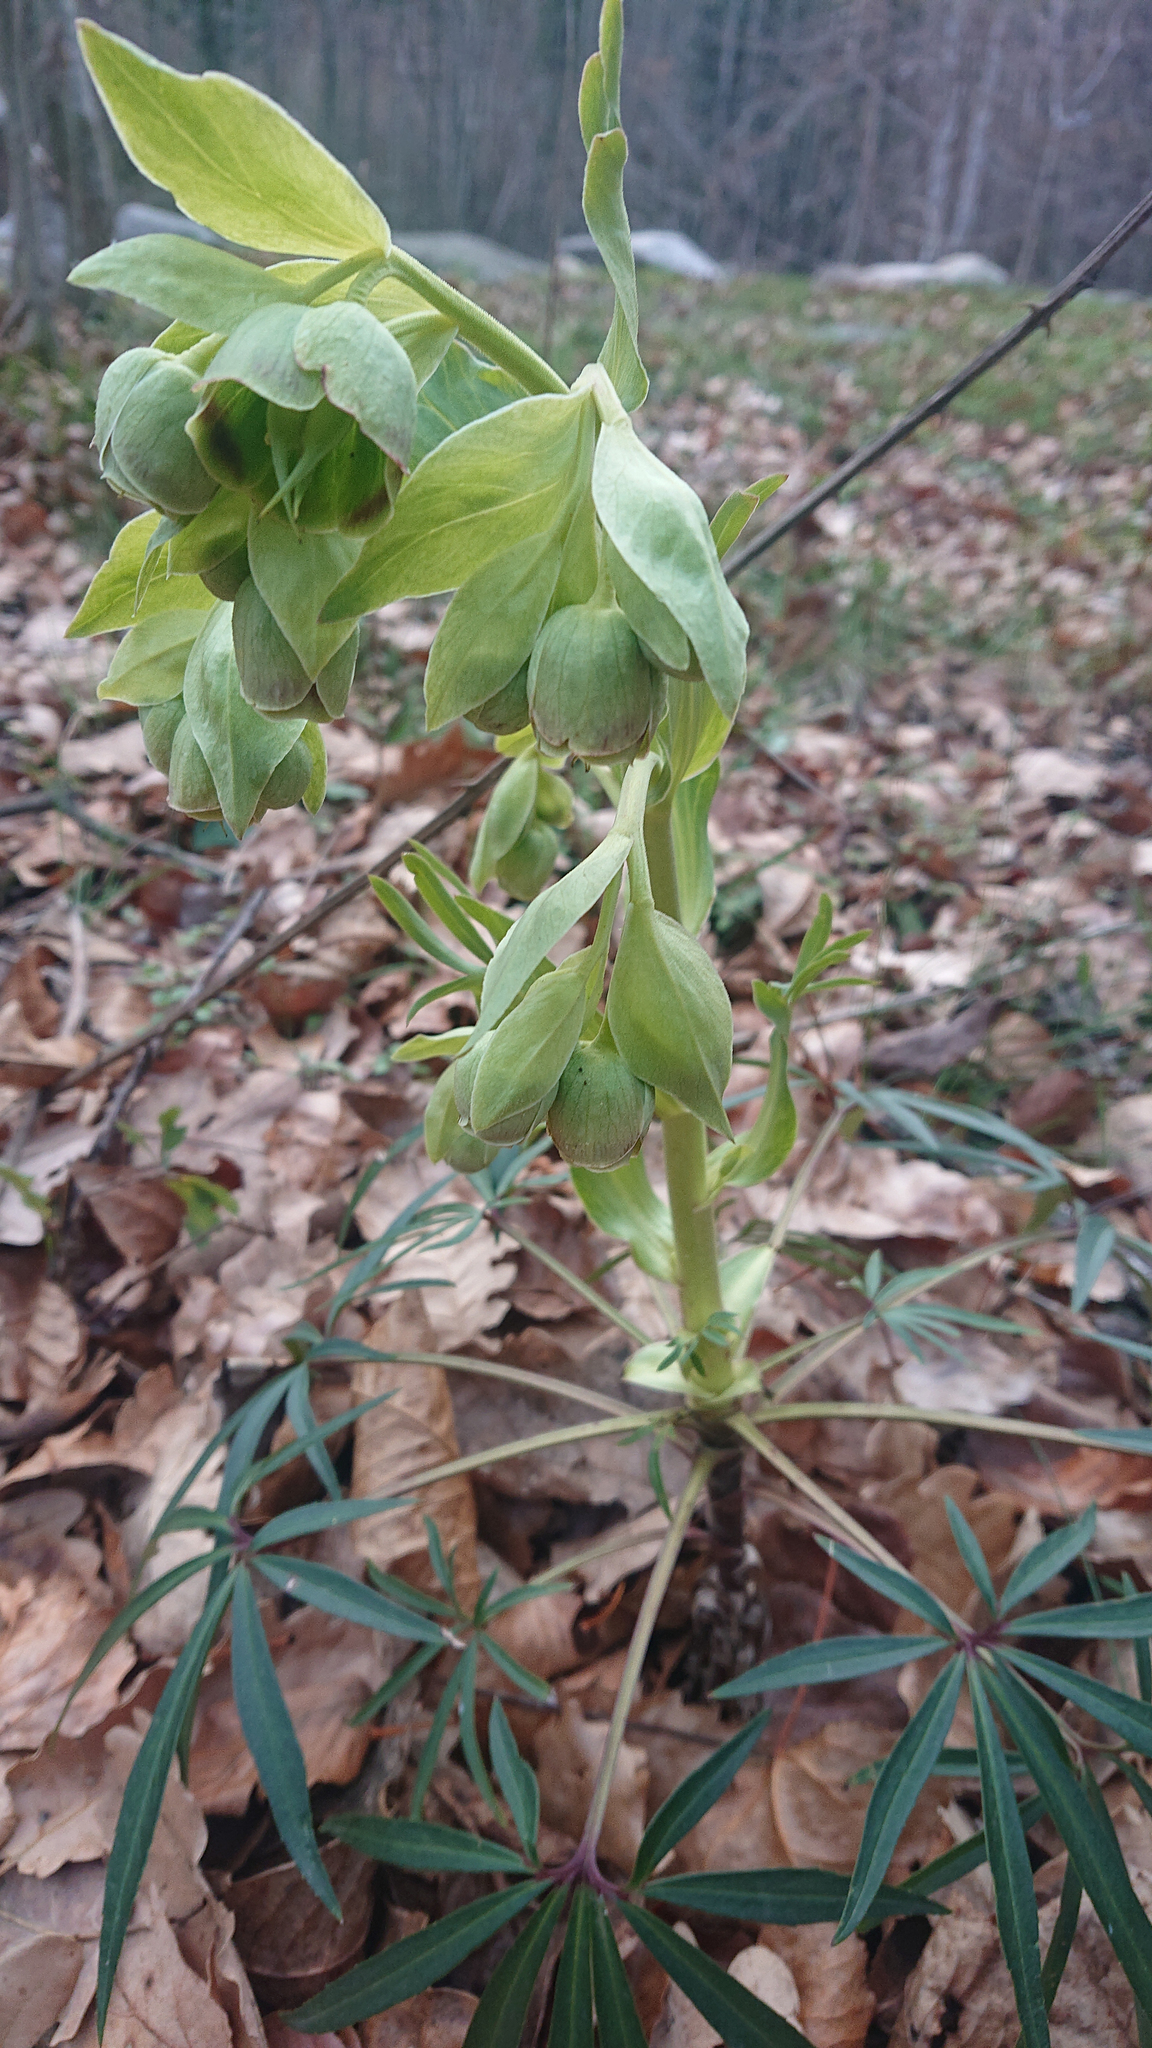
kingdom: Plantae
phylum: Tracheophyta
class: Magnoliopsida
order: Ranunculales
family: Ranunculaceae
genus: Helleborus
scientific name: Helleborus foetidus
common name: Stinking hellebore
